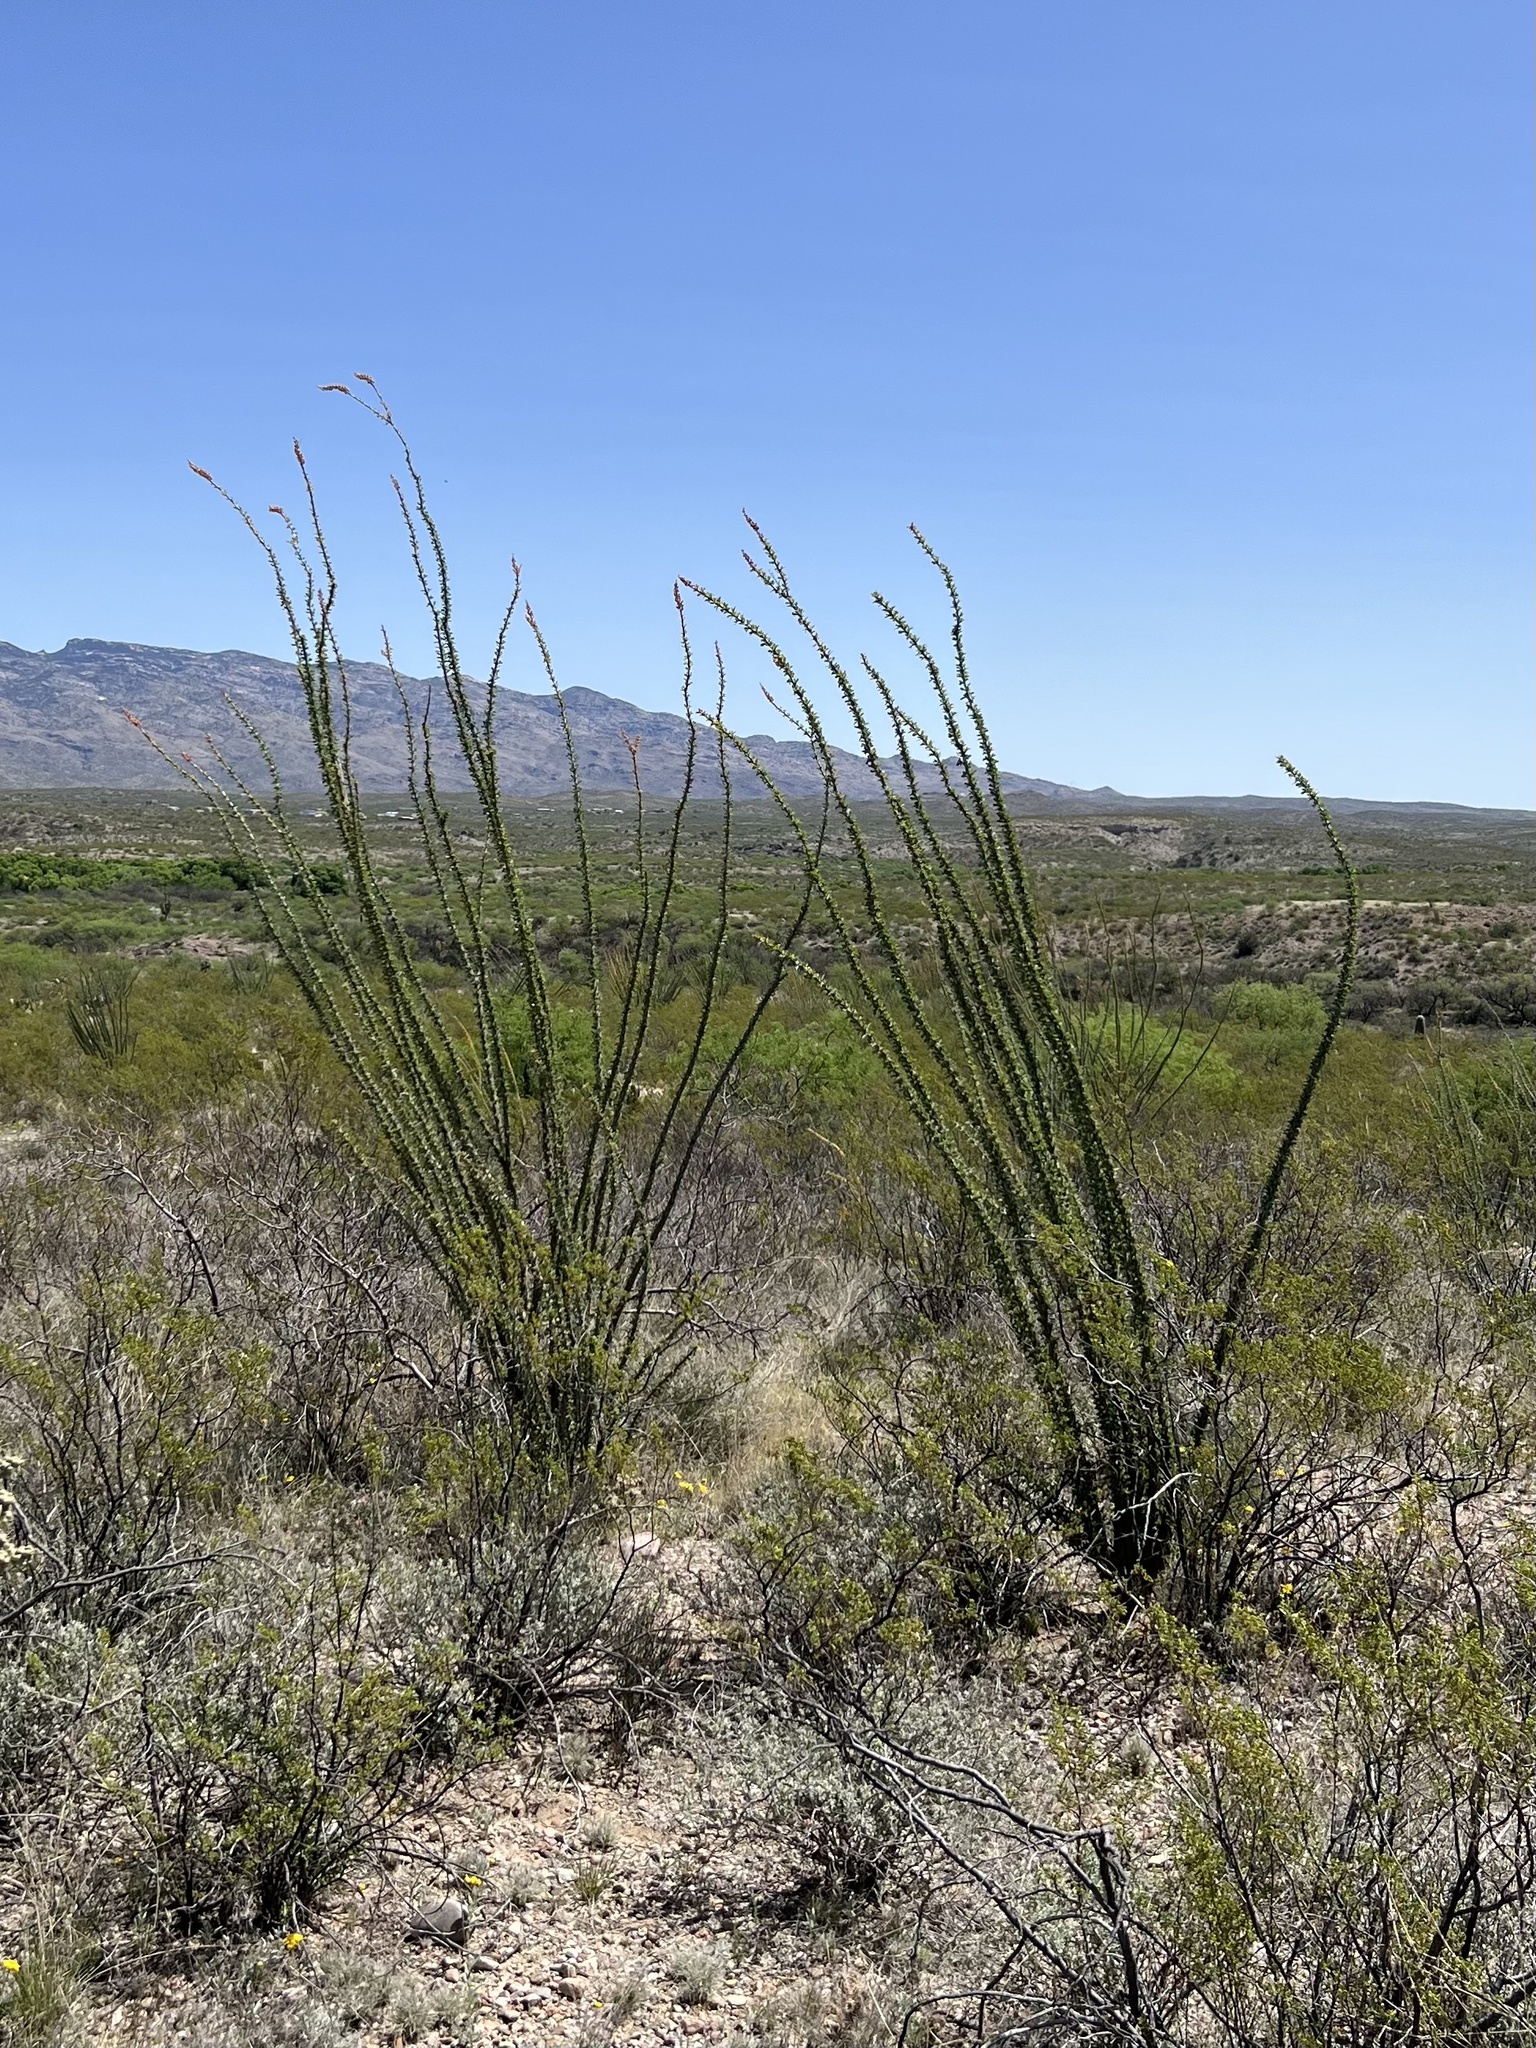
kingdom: Plantae
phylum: Tracheophyta
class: Magnoliopsida
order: Ericales
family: Fouquieriaceae
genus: Fouquieria
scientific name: Fouquieria splendens
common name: Vine-cactus
